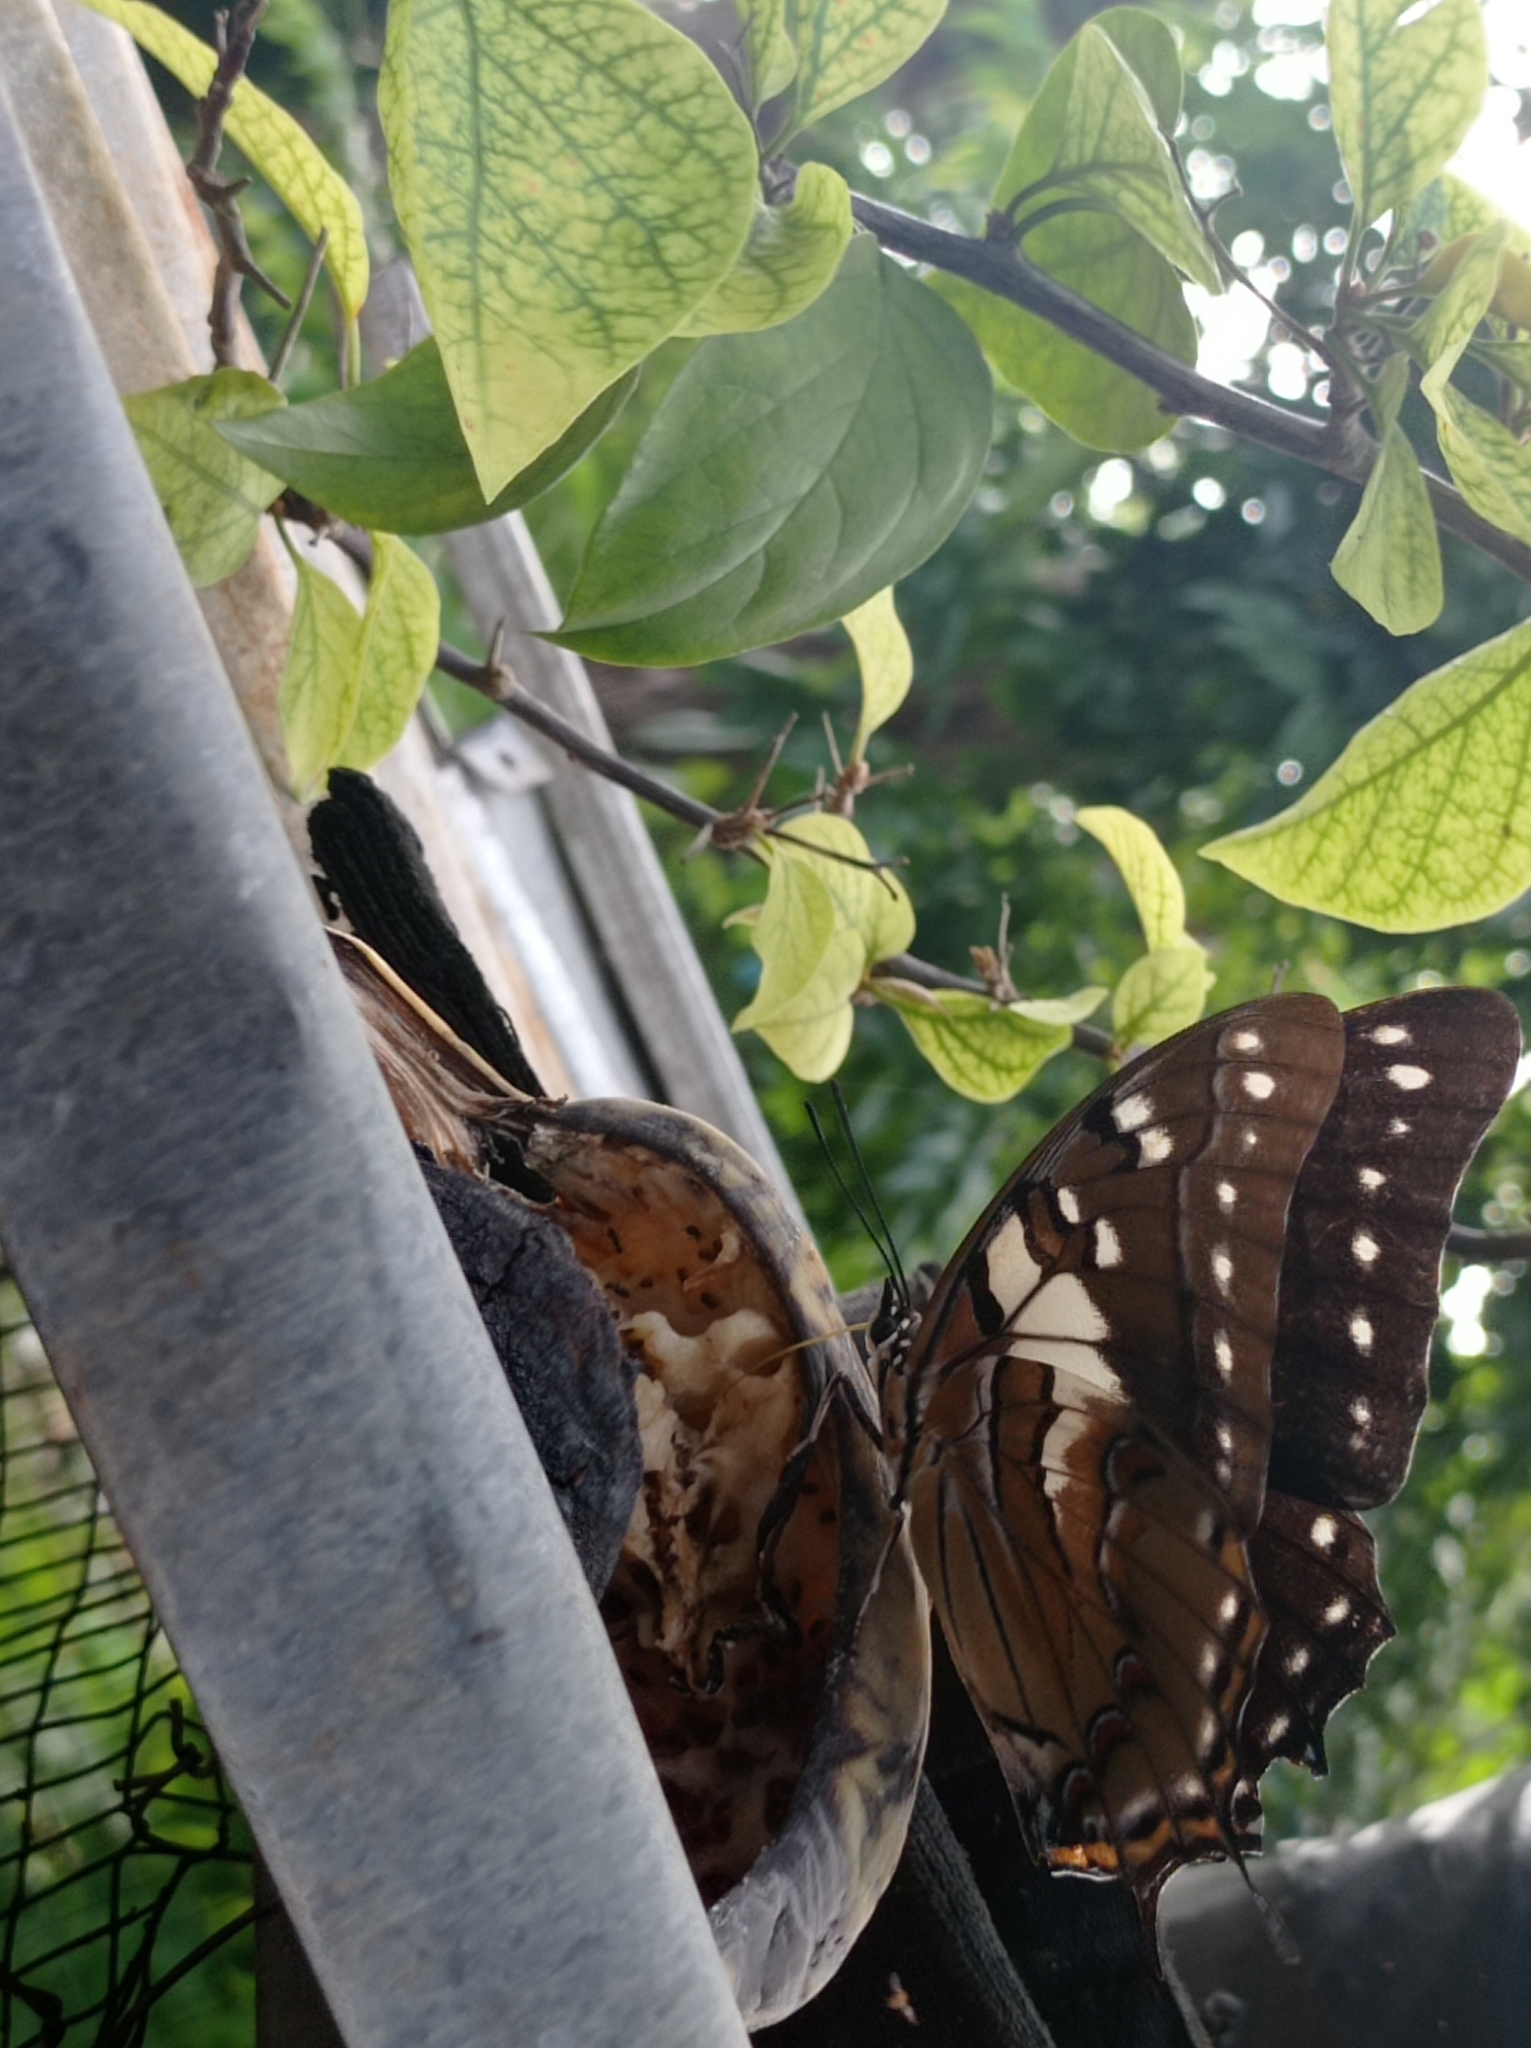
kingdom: Animalia
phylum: Arthropoda
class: Insecta
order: Lepidoptera
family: Nymphalidae
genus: Polyura
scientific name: Polyura pyrrhus
